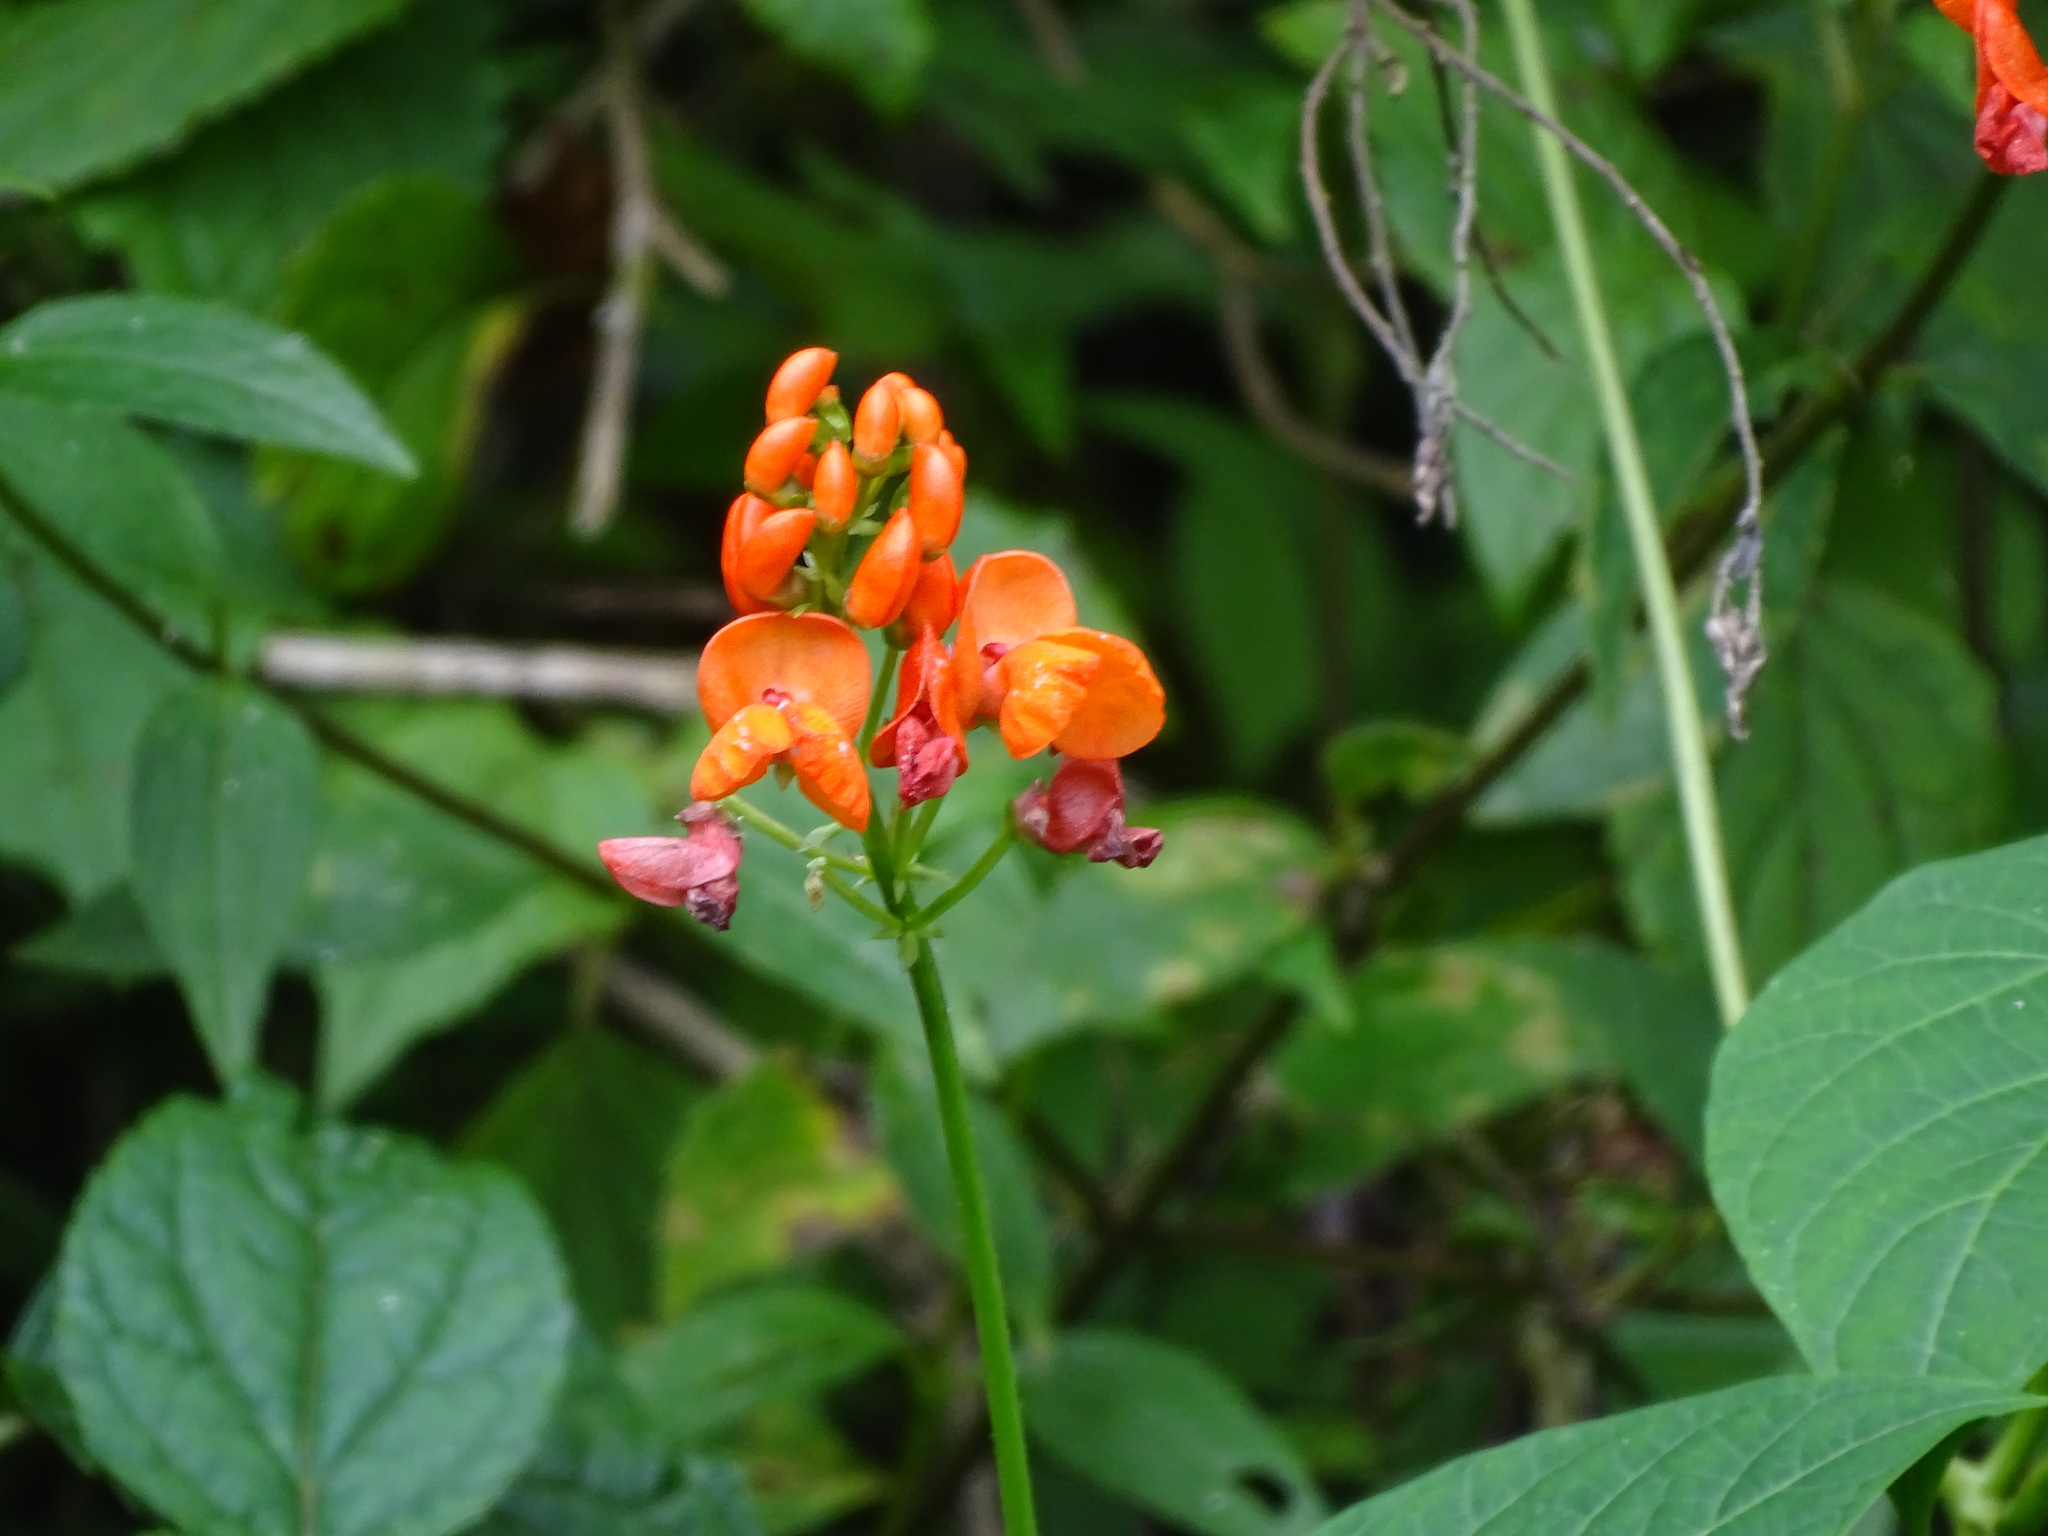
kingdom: Plantae
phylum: Tracheophyta
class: Magnoliopsida
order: Fabales
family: Fabaceae
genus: Phaseolus
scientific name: Phaseolus coccineus
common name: Runner bean
